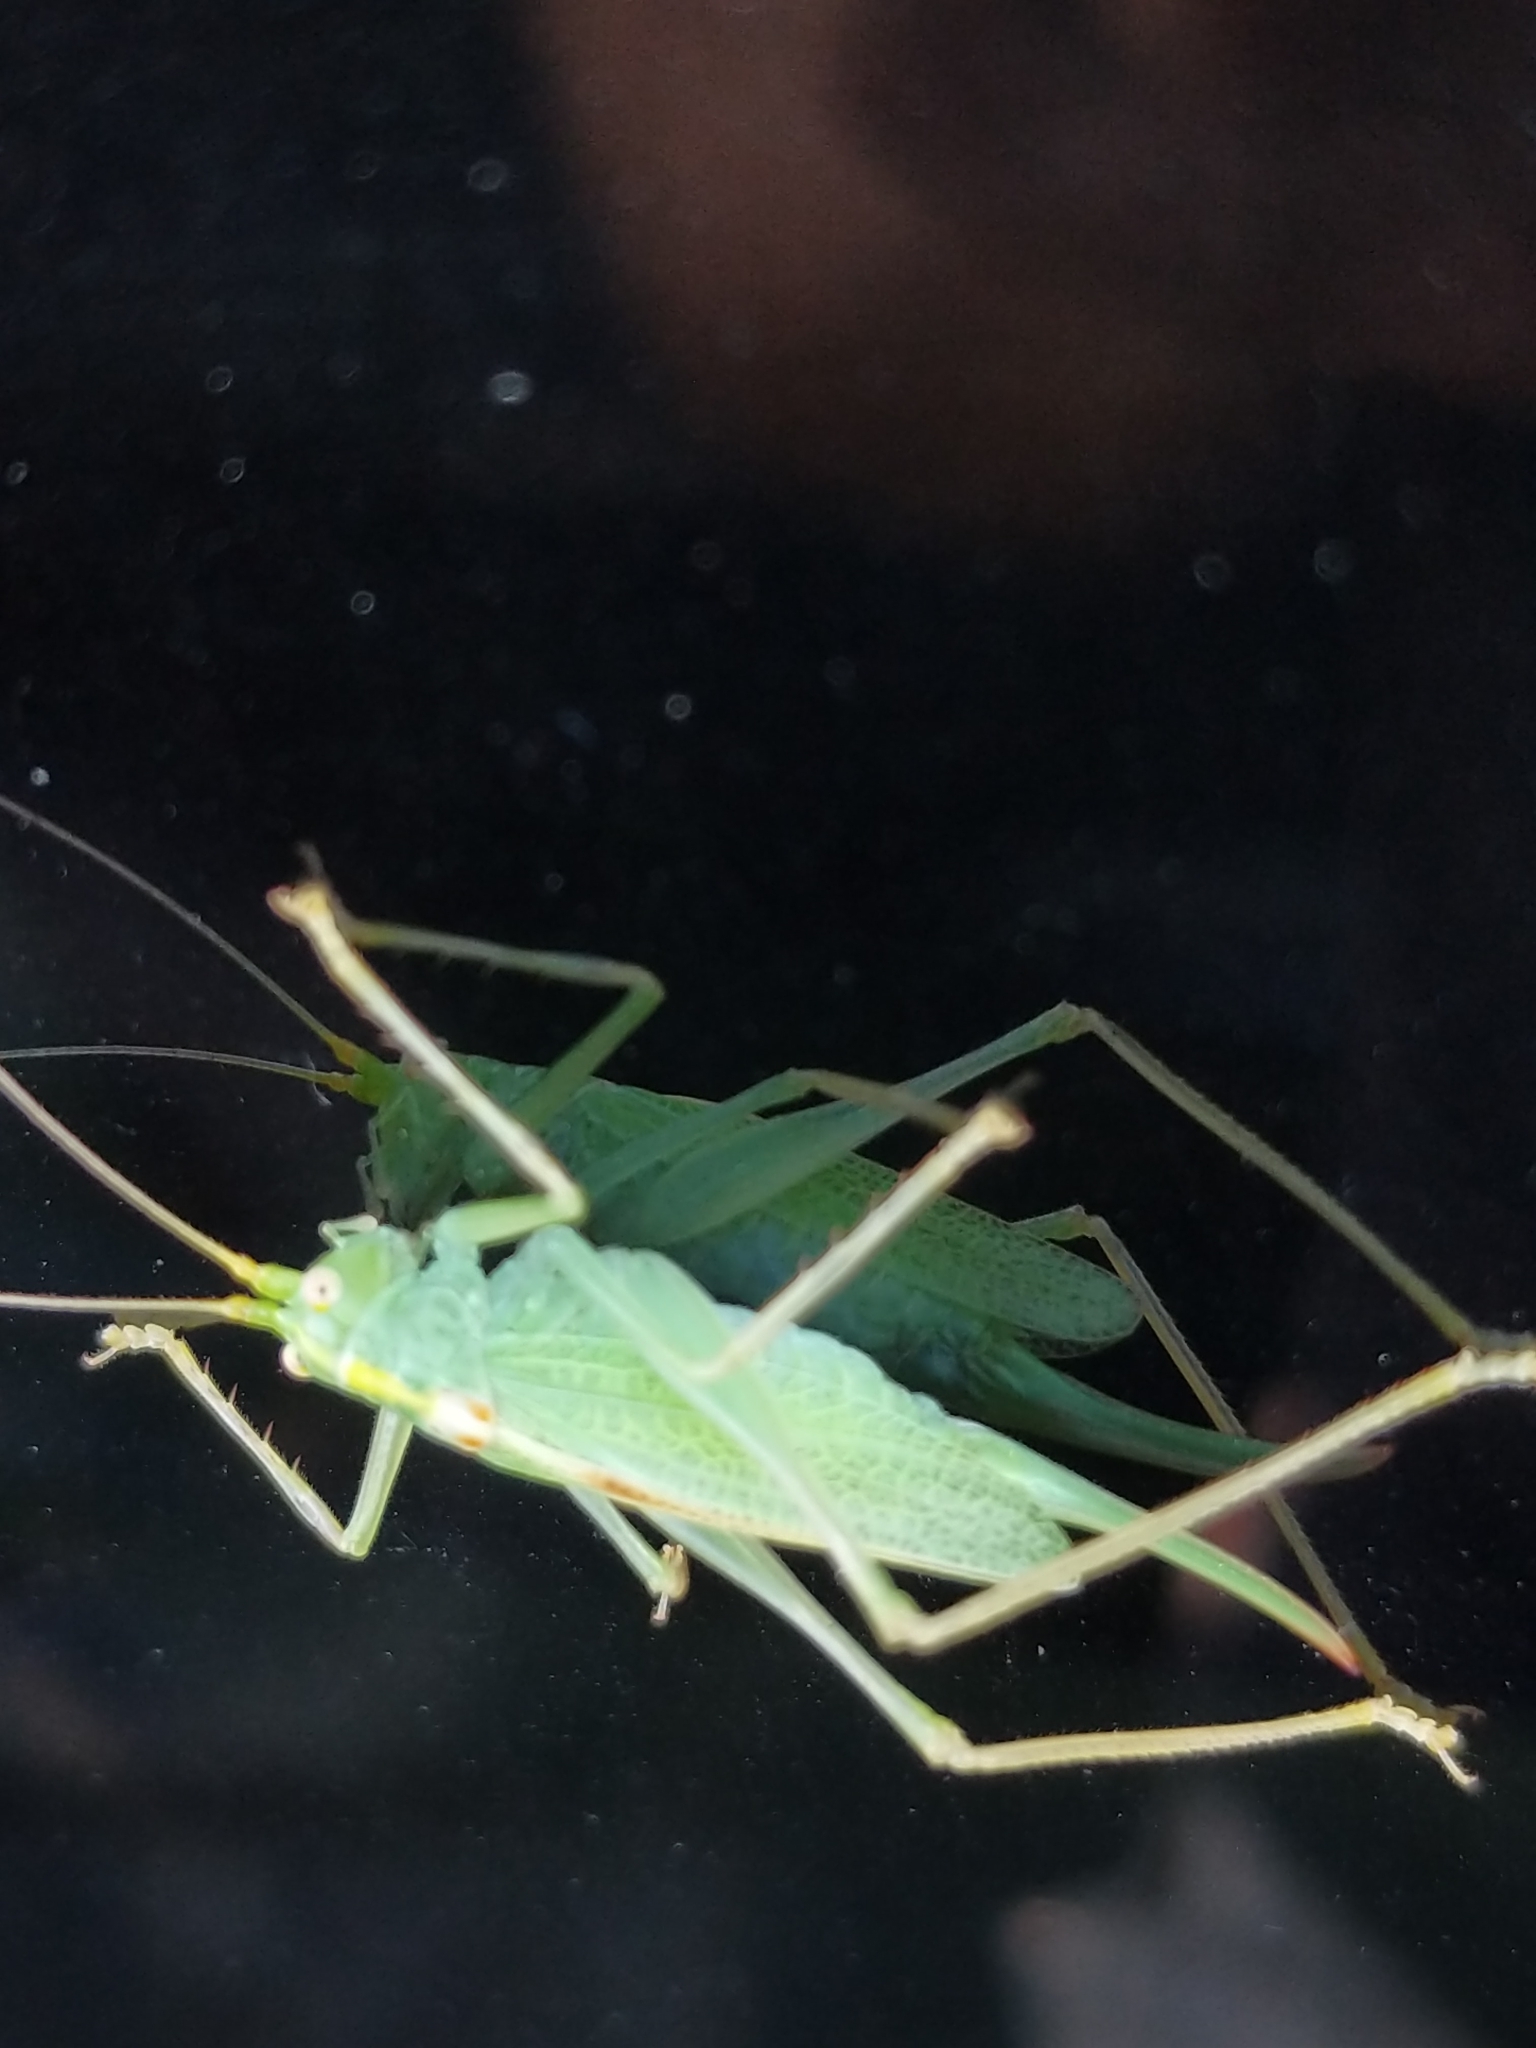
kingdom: Animalia
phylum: Arthropoda
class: Insecta
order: Orthoptera
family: Tettigoniidae
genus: Meconema
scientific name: Meconema thalassinum
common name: Oak bush-cricket
